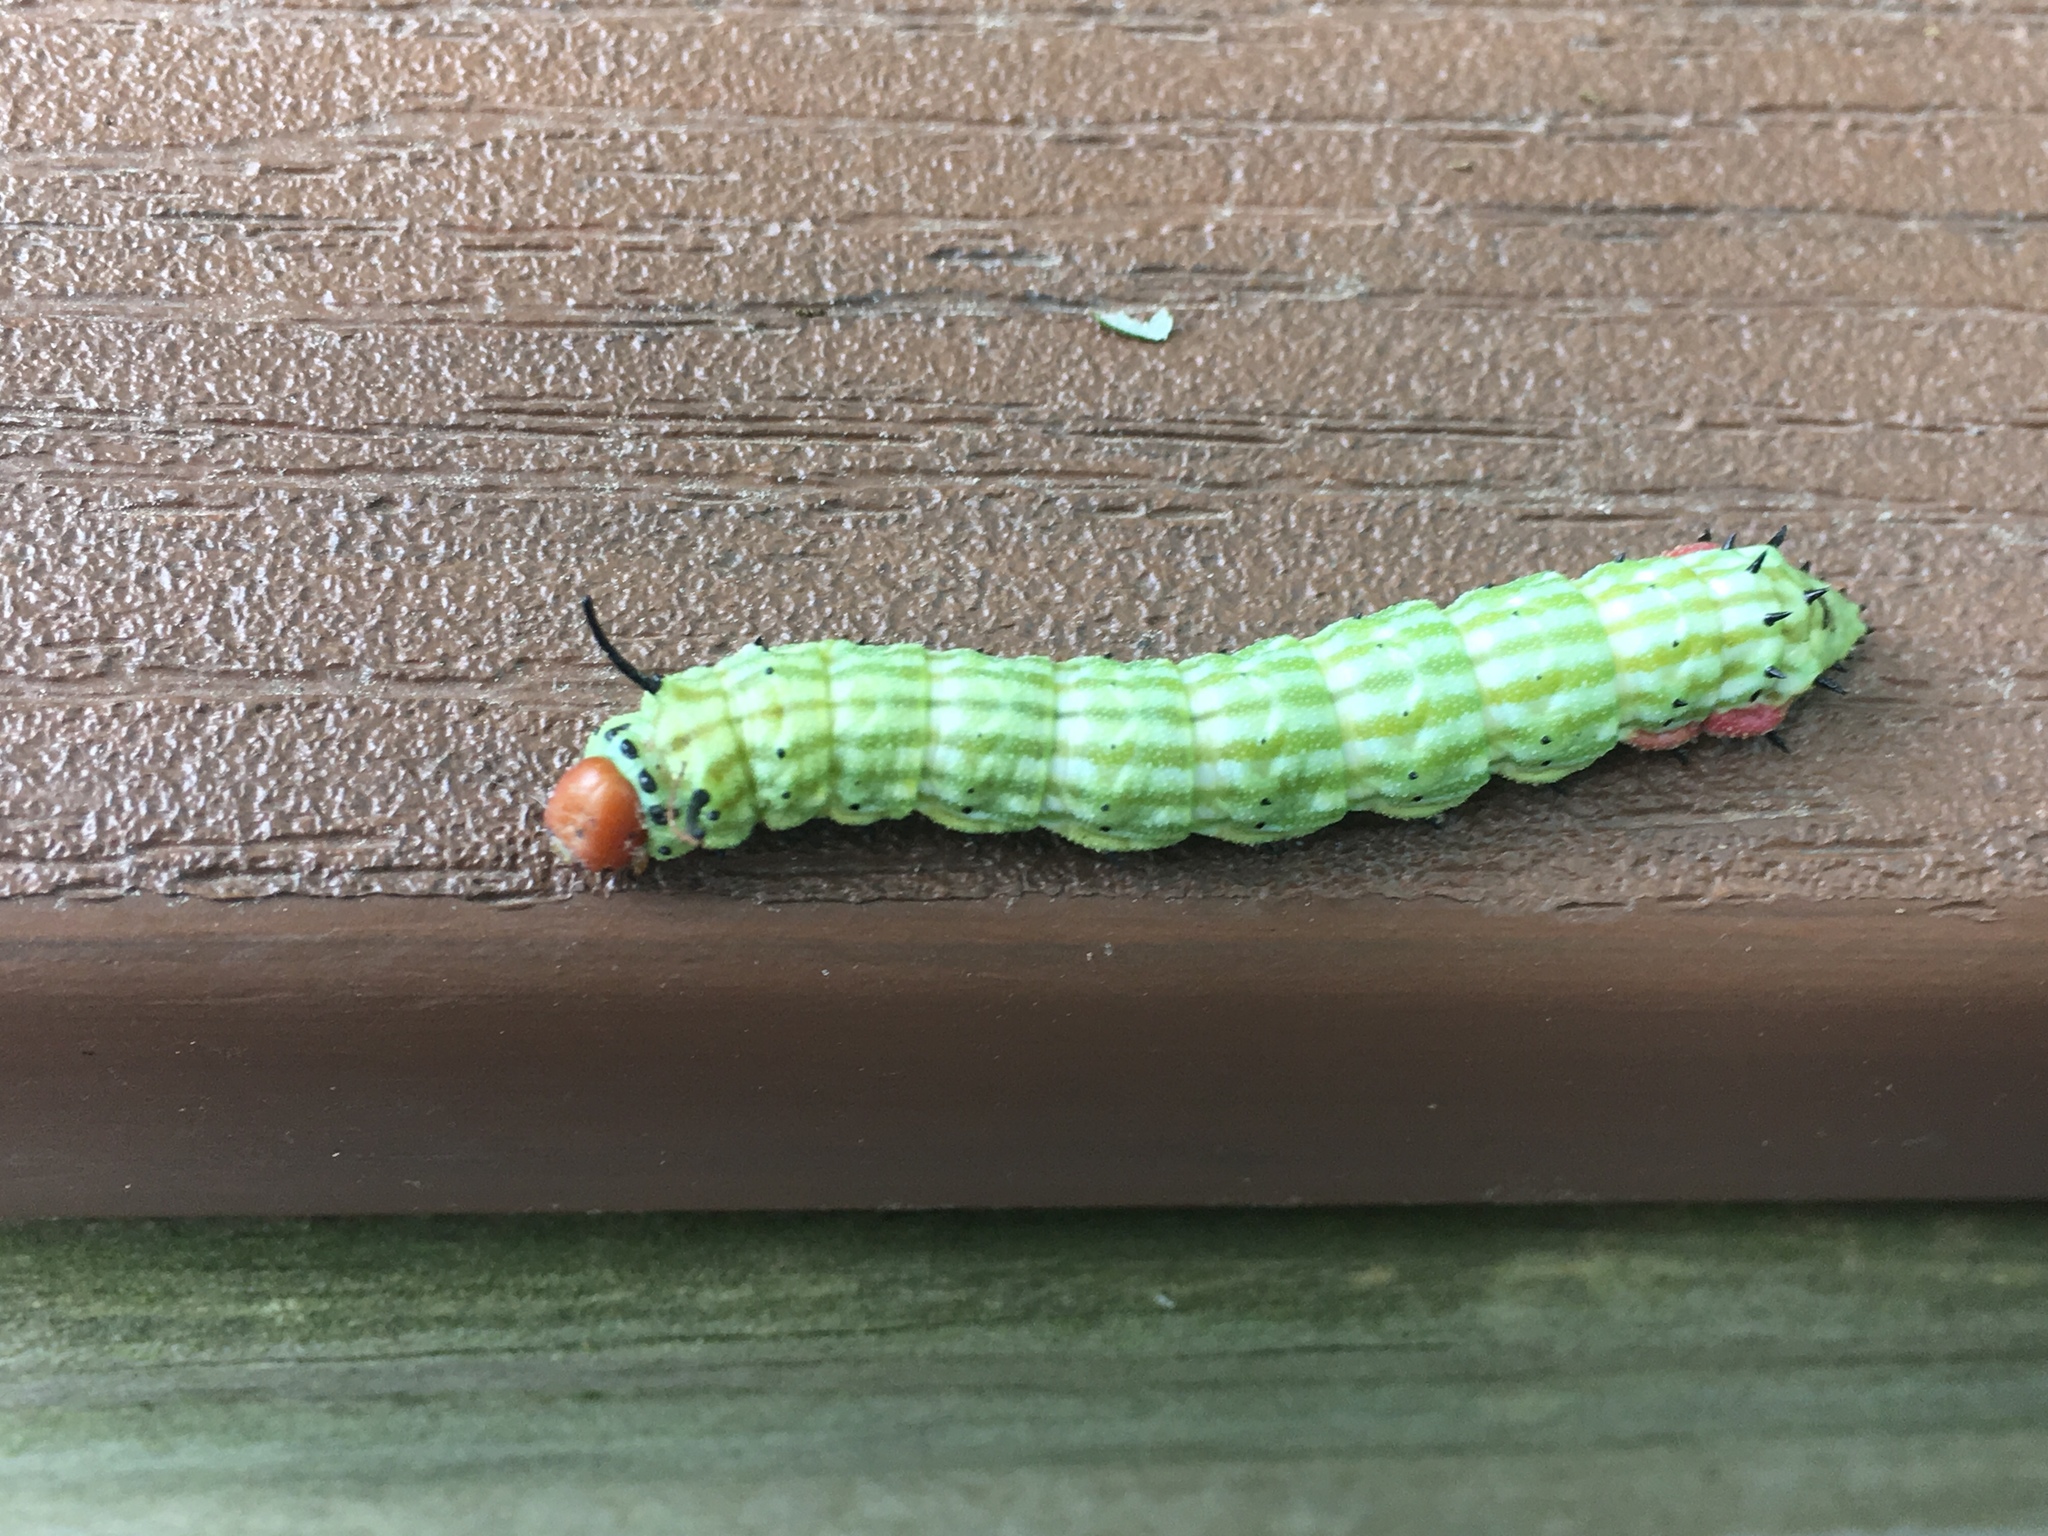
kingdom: Animalia
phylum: Arthropoda
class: Insecta
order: Lepidoptera
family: Saturniidae
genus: Dryocampa
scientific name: Dryocampa rubicunda
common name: Rosy maple moth
